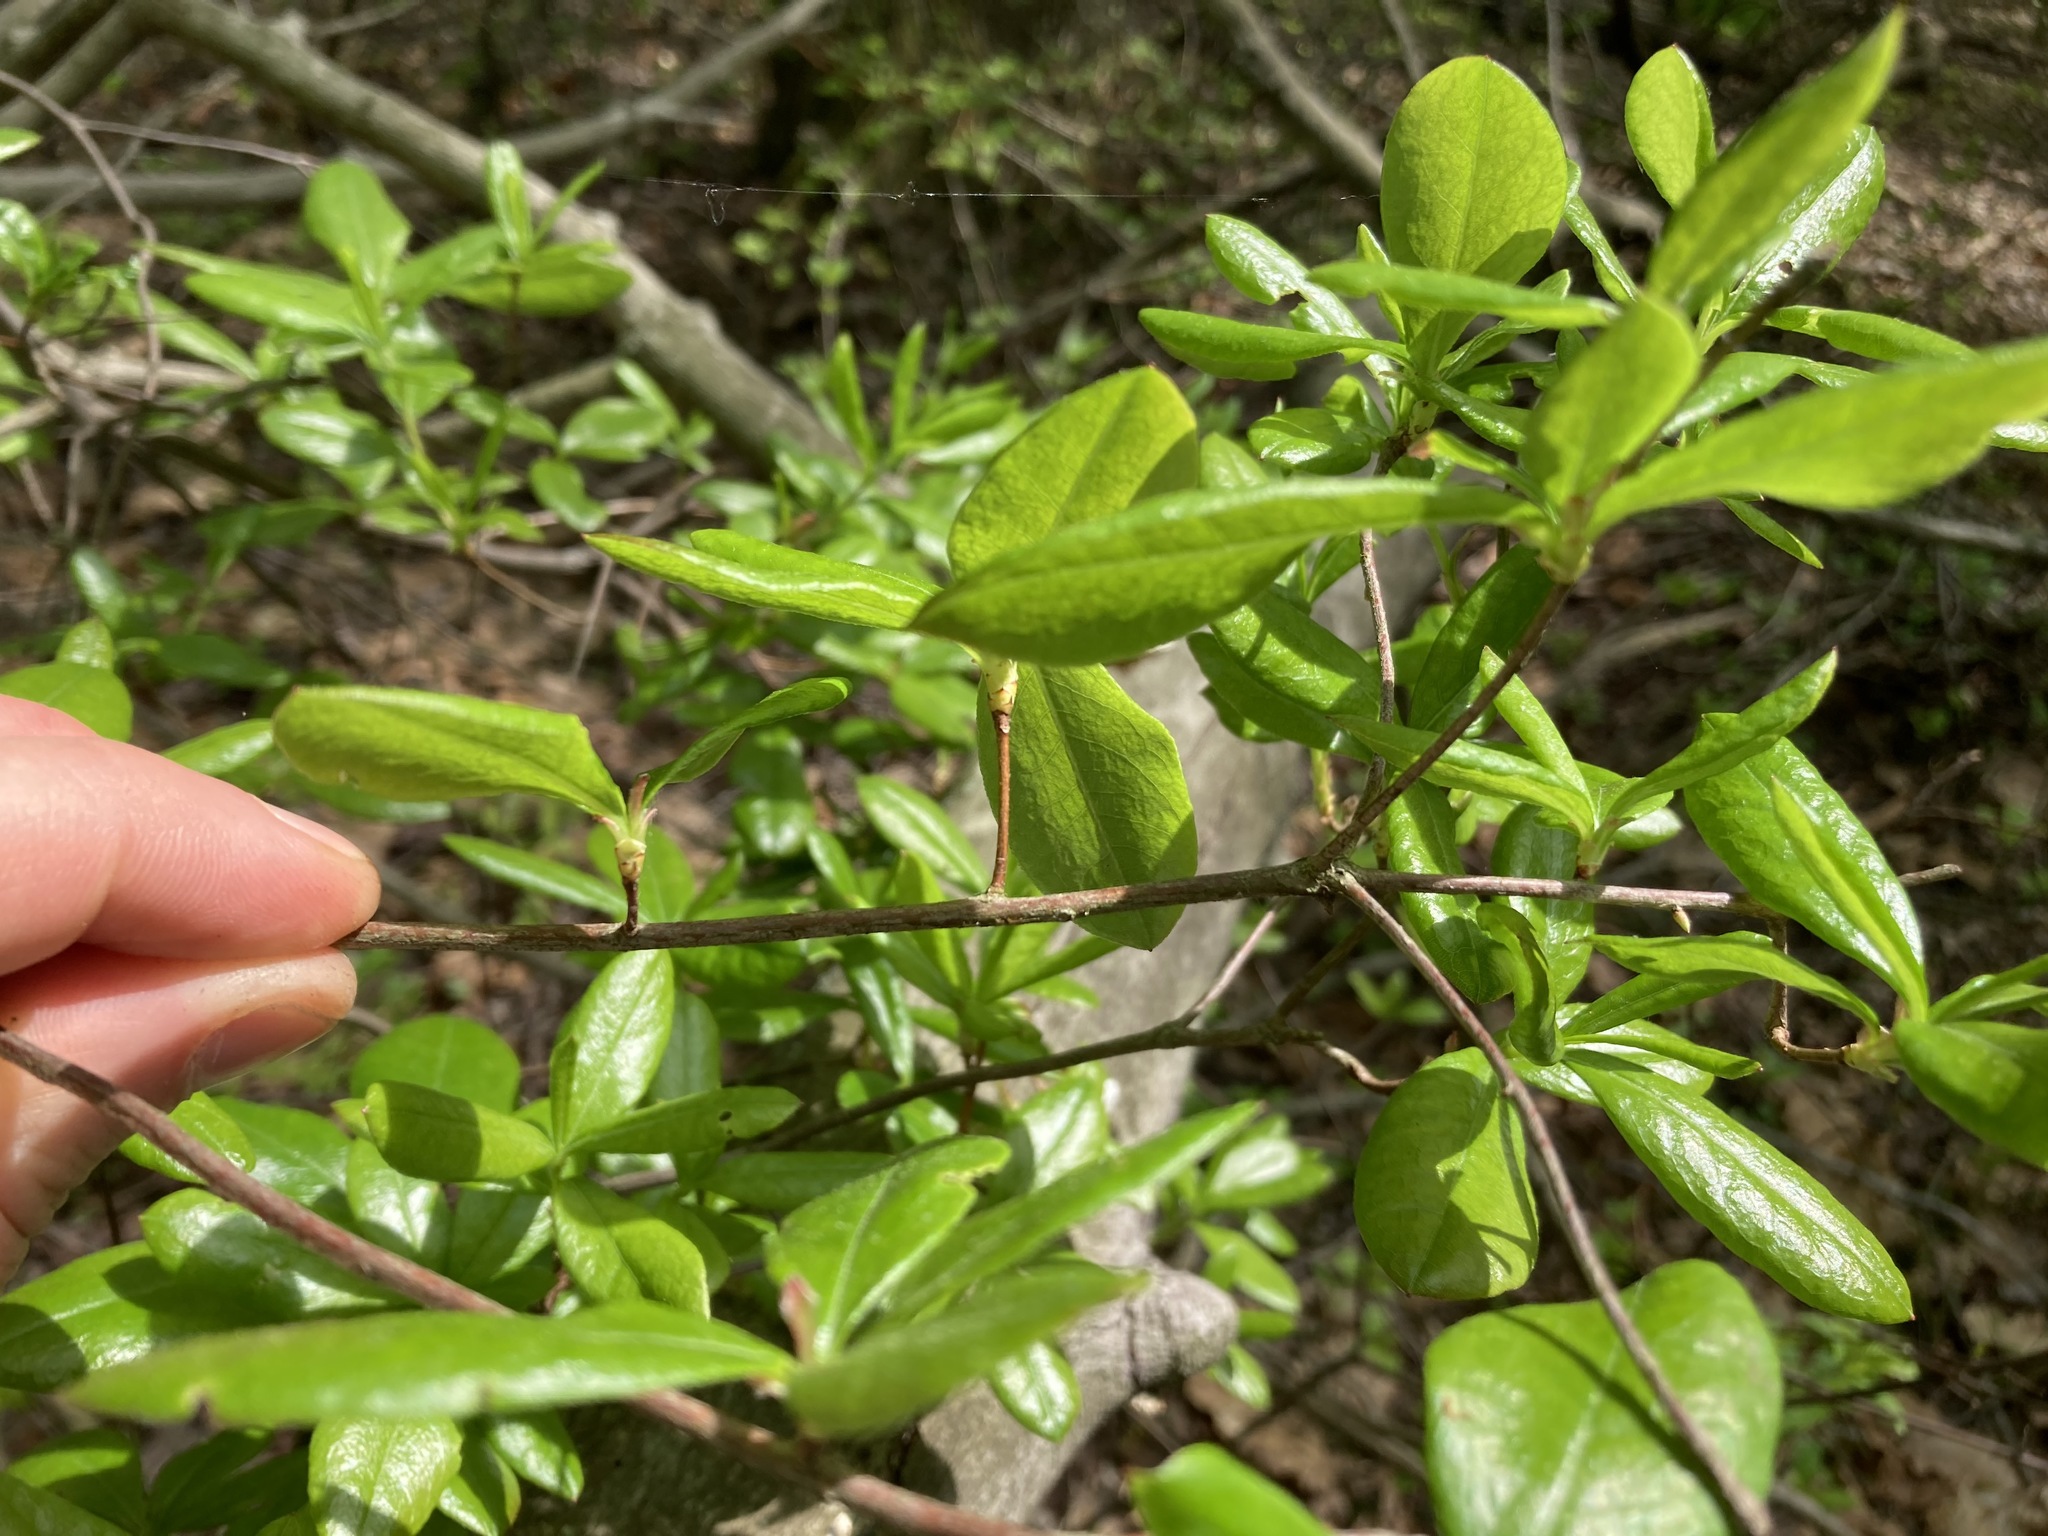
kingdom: Plantae
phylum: Tracheophyta
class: Magnoliopsida
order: Fagales
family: Fagaceae
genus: Quercus
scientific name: Quercus phellos
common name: Willow oak
